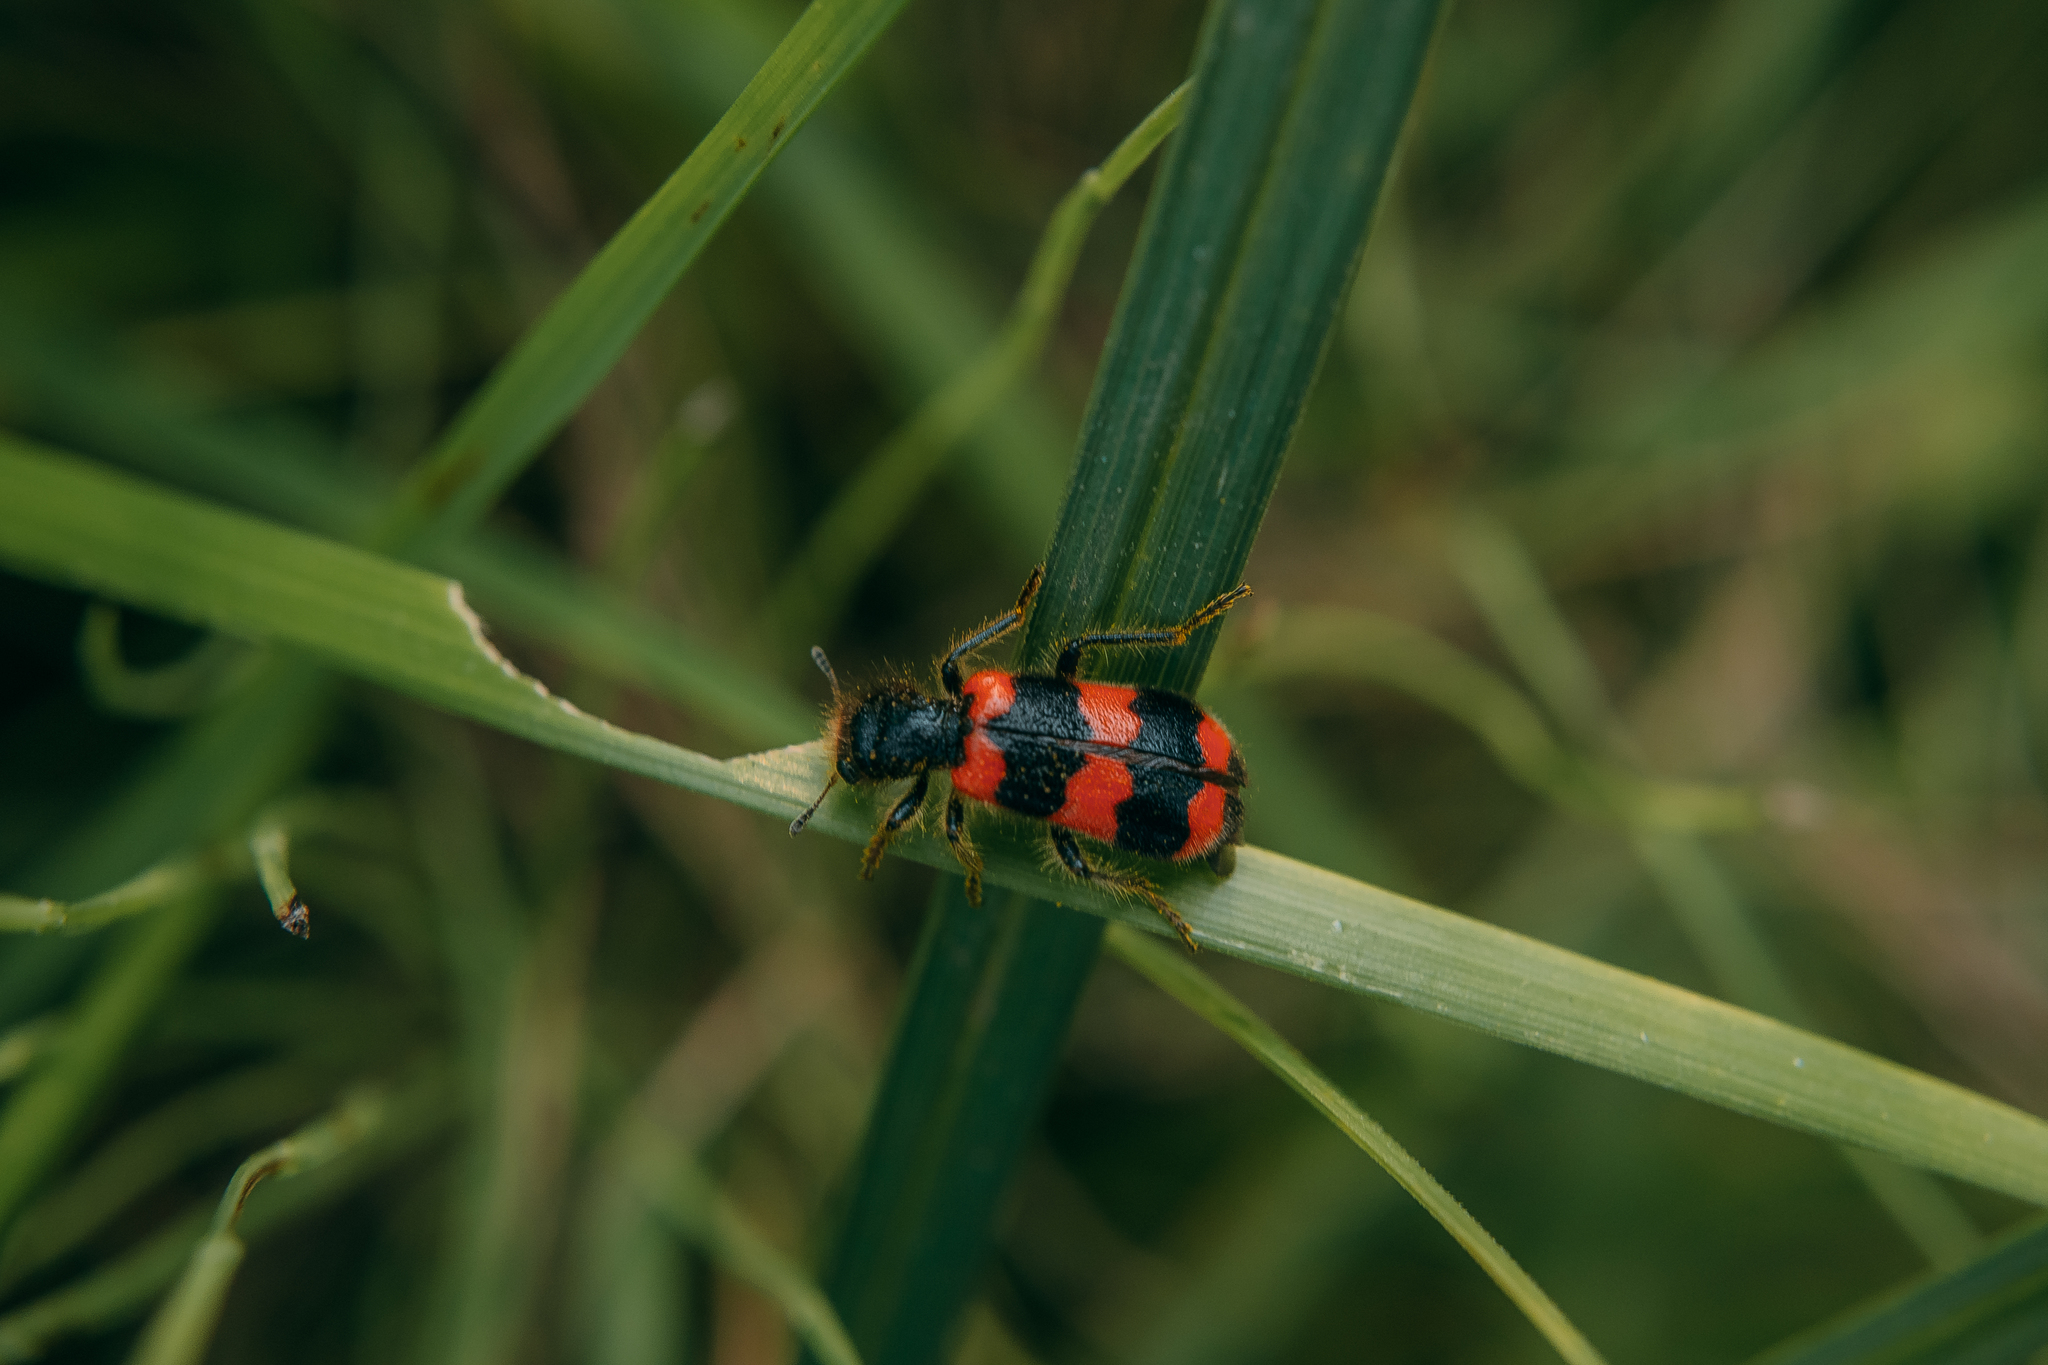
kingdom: Animalia
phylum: Arthropoda
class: Insecta
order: Coleoptera
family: Cleridae
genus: Trichodes
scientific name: Trichodes apiarius
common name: Bee-eating beetle
